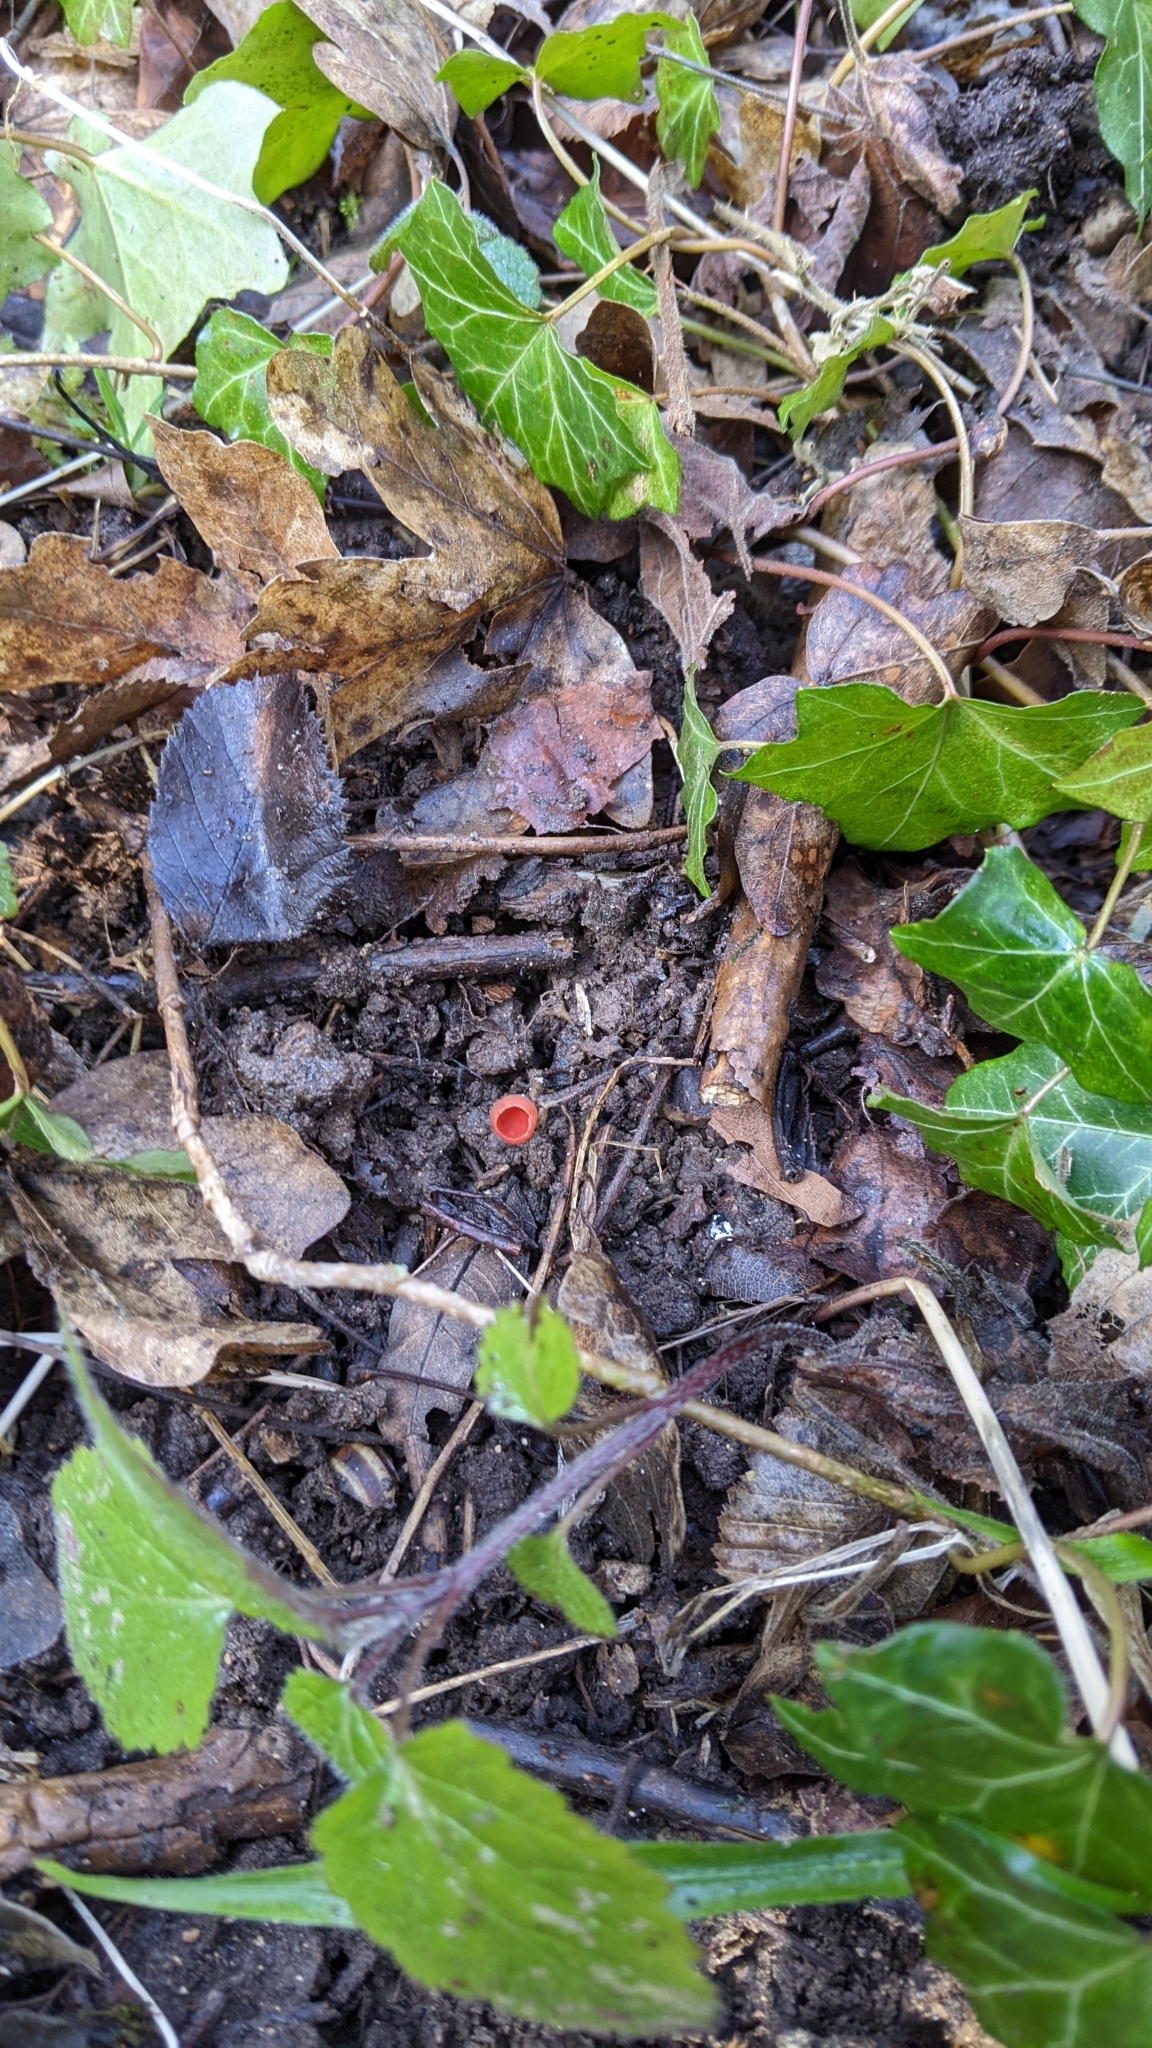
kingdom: Fungi
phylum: Ascomycota
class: Pezizomycetes
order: Pezizales
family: Sarcoscyphaceae
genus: Sarcoscypha
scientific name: Sarcoscypha
